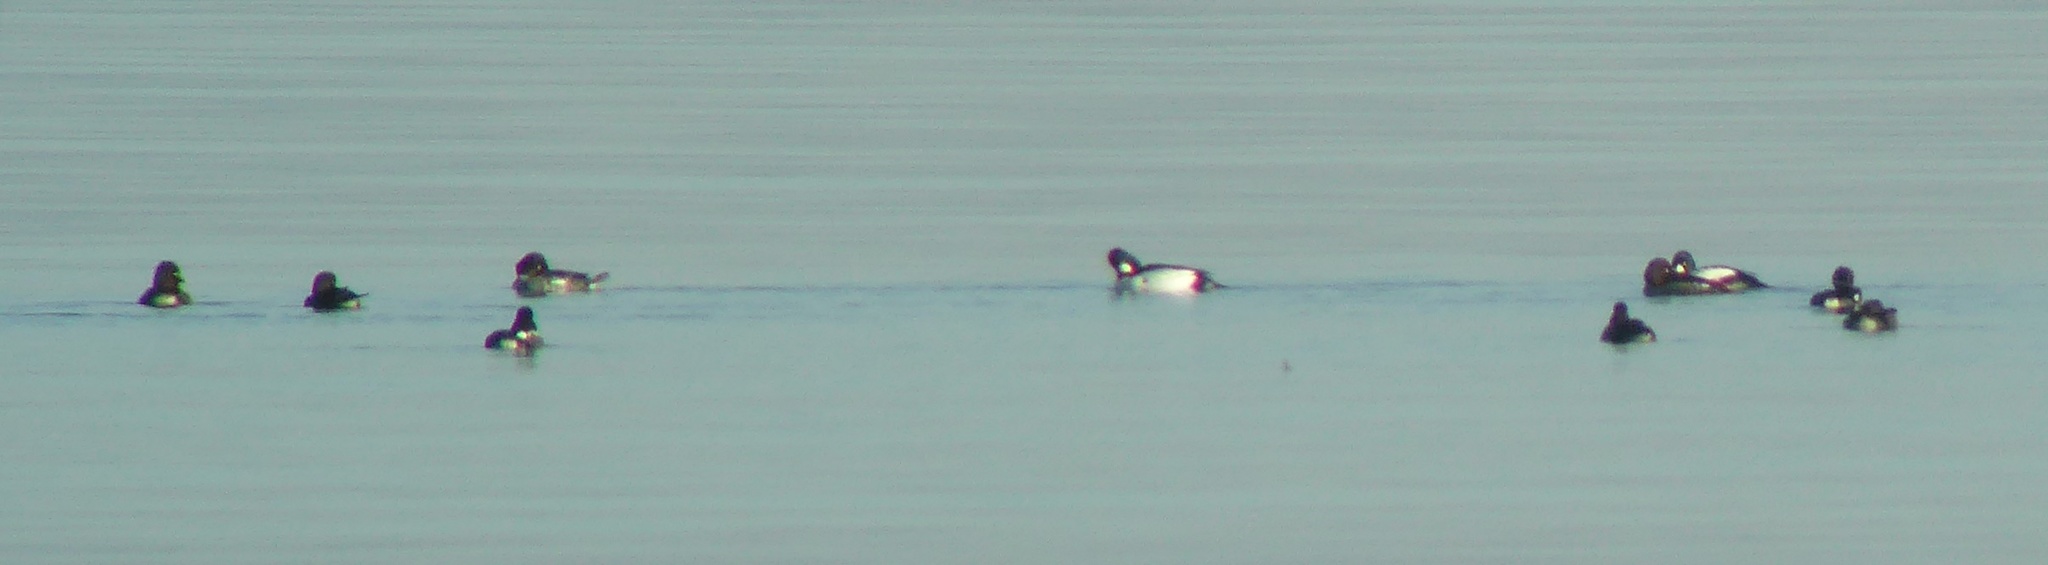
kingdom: Animalia
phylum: Chordata
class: Aves
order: Anseriformes
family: Anatidae
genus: Bucephala
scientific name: Bucephala clangula
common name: Common goldeneye
